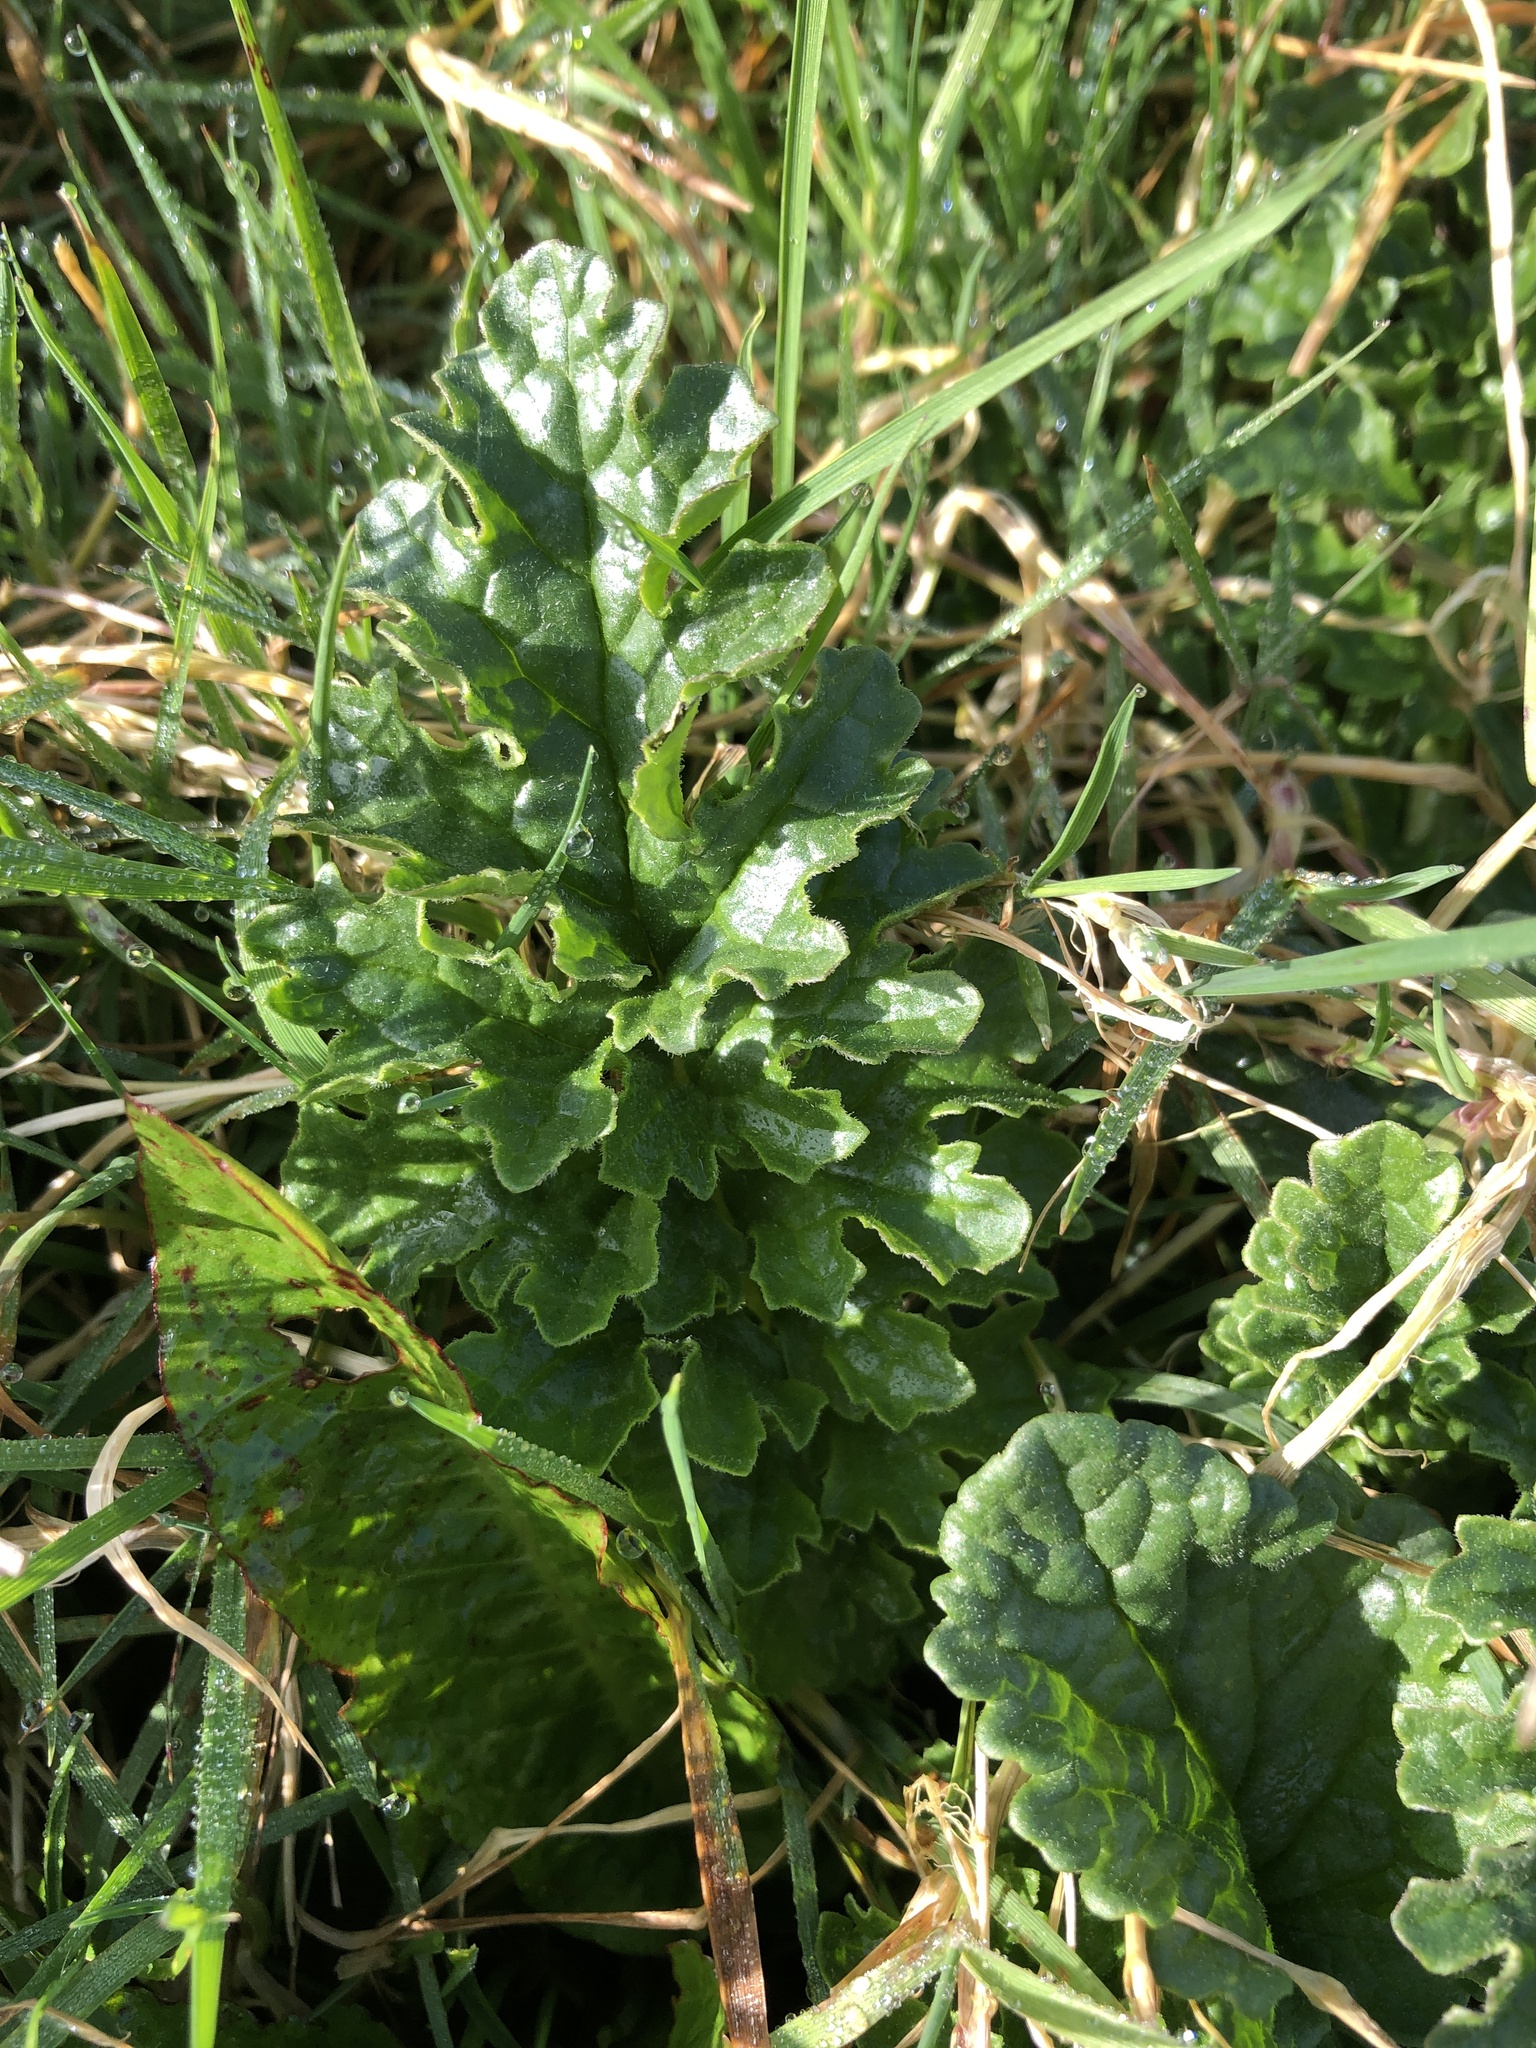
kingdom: Plantae
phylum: Tracheophyta
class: Magnoliopsida
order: Asterales
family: Asteraceae
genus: Jacobaea
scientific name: Jacobaea vulgaris
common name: Stinking willie
